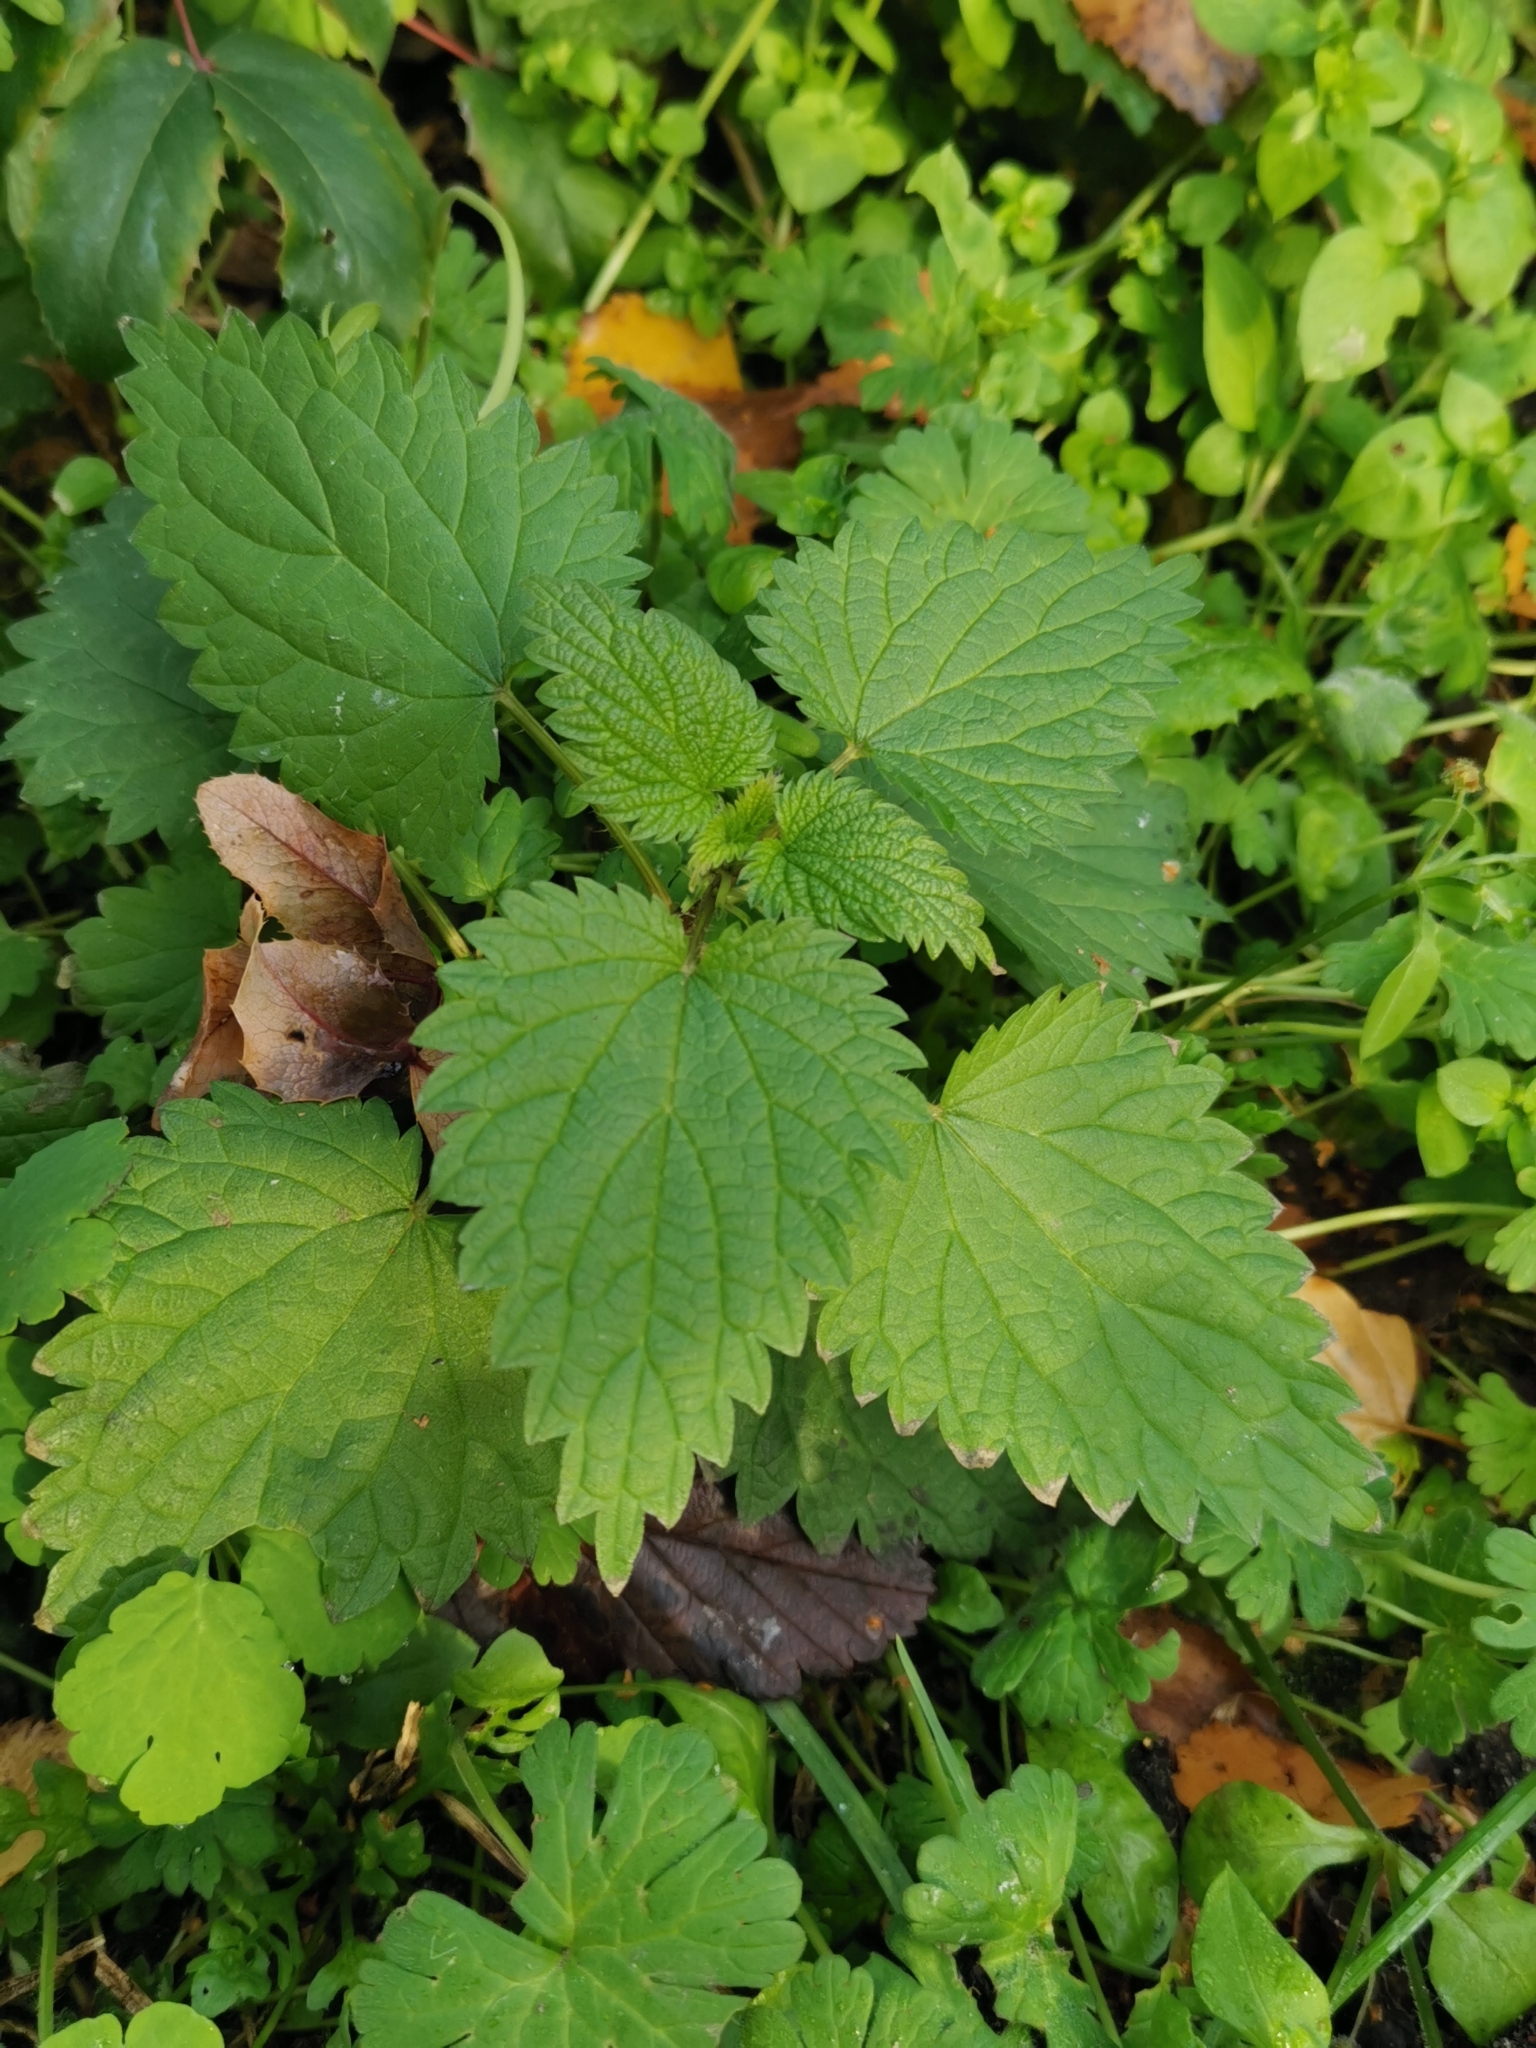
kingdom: Plantae
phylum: Tracheophyta
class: Magnoliopsida
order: Rosales
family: Urticaceae
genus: Urtica
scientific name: Urtica dioica
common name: Common nettle
